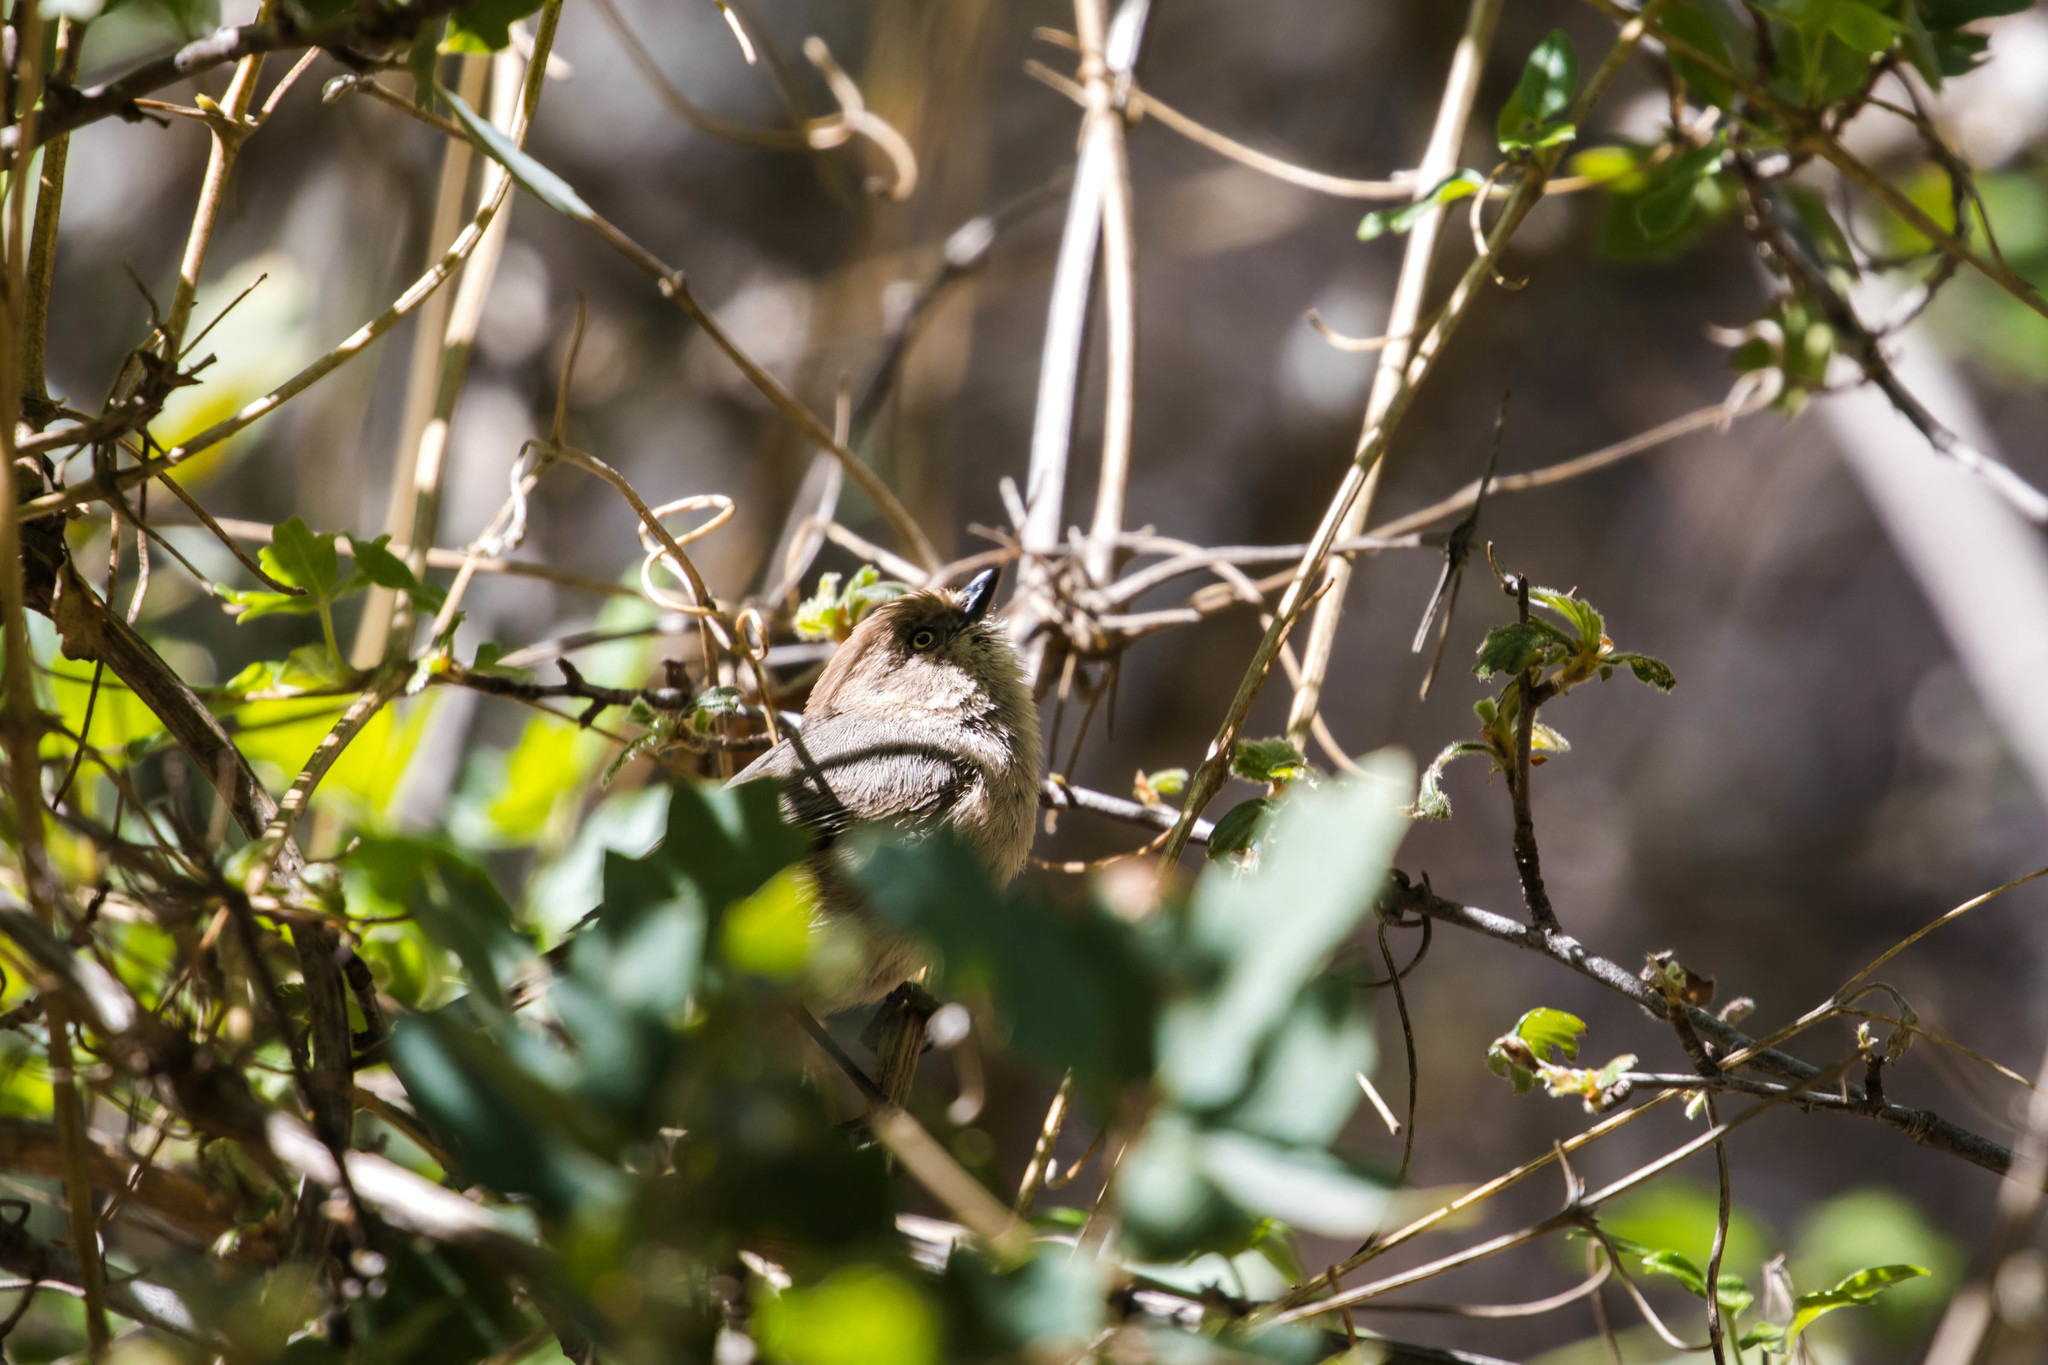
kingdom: Animalia
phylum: Chordata
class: Aves
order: Passeriformes
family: Aegithalidae
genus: Psaltriparus
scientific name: Psaltriparus minimus
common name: American bushtit
